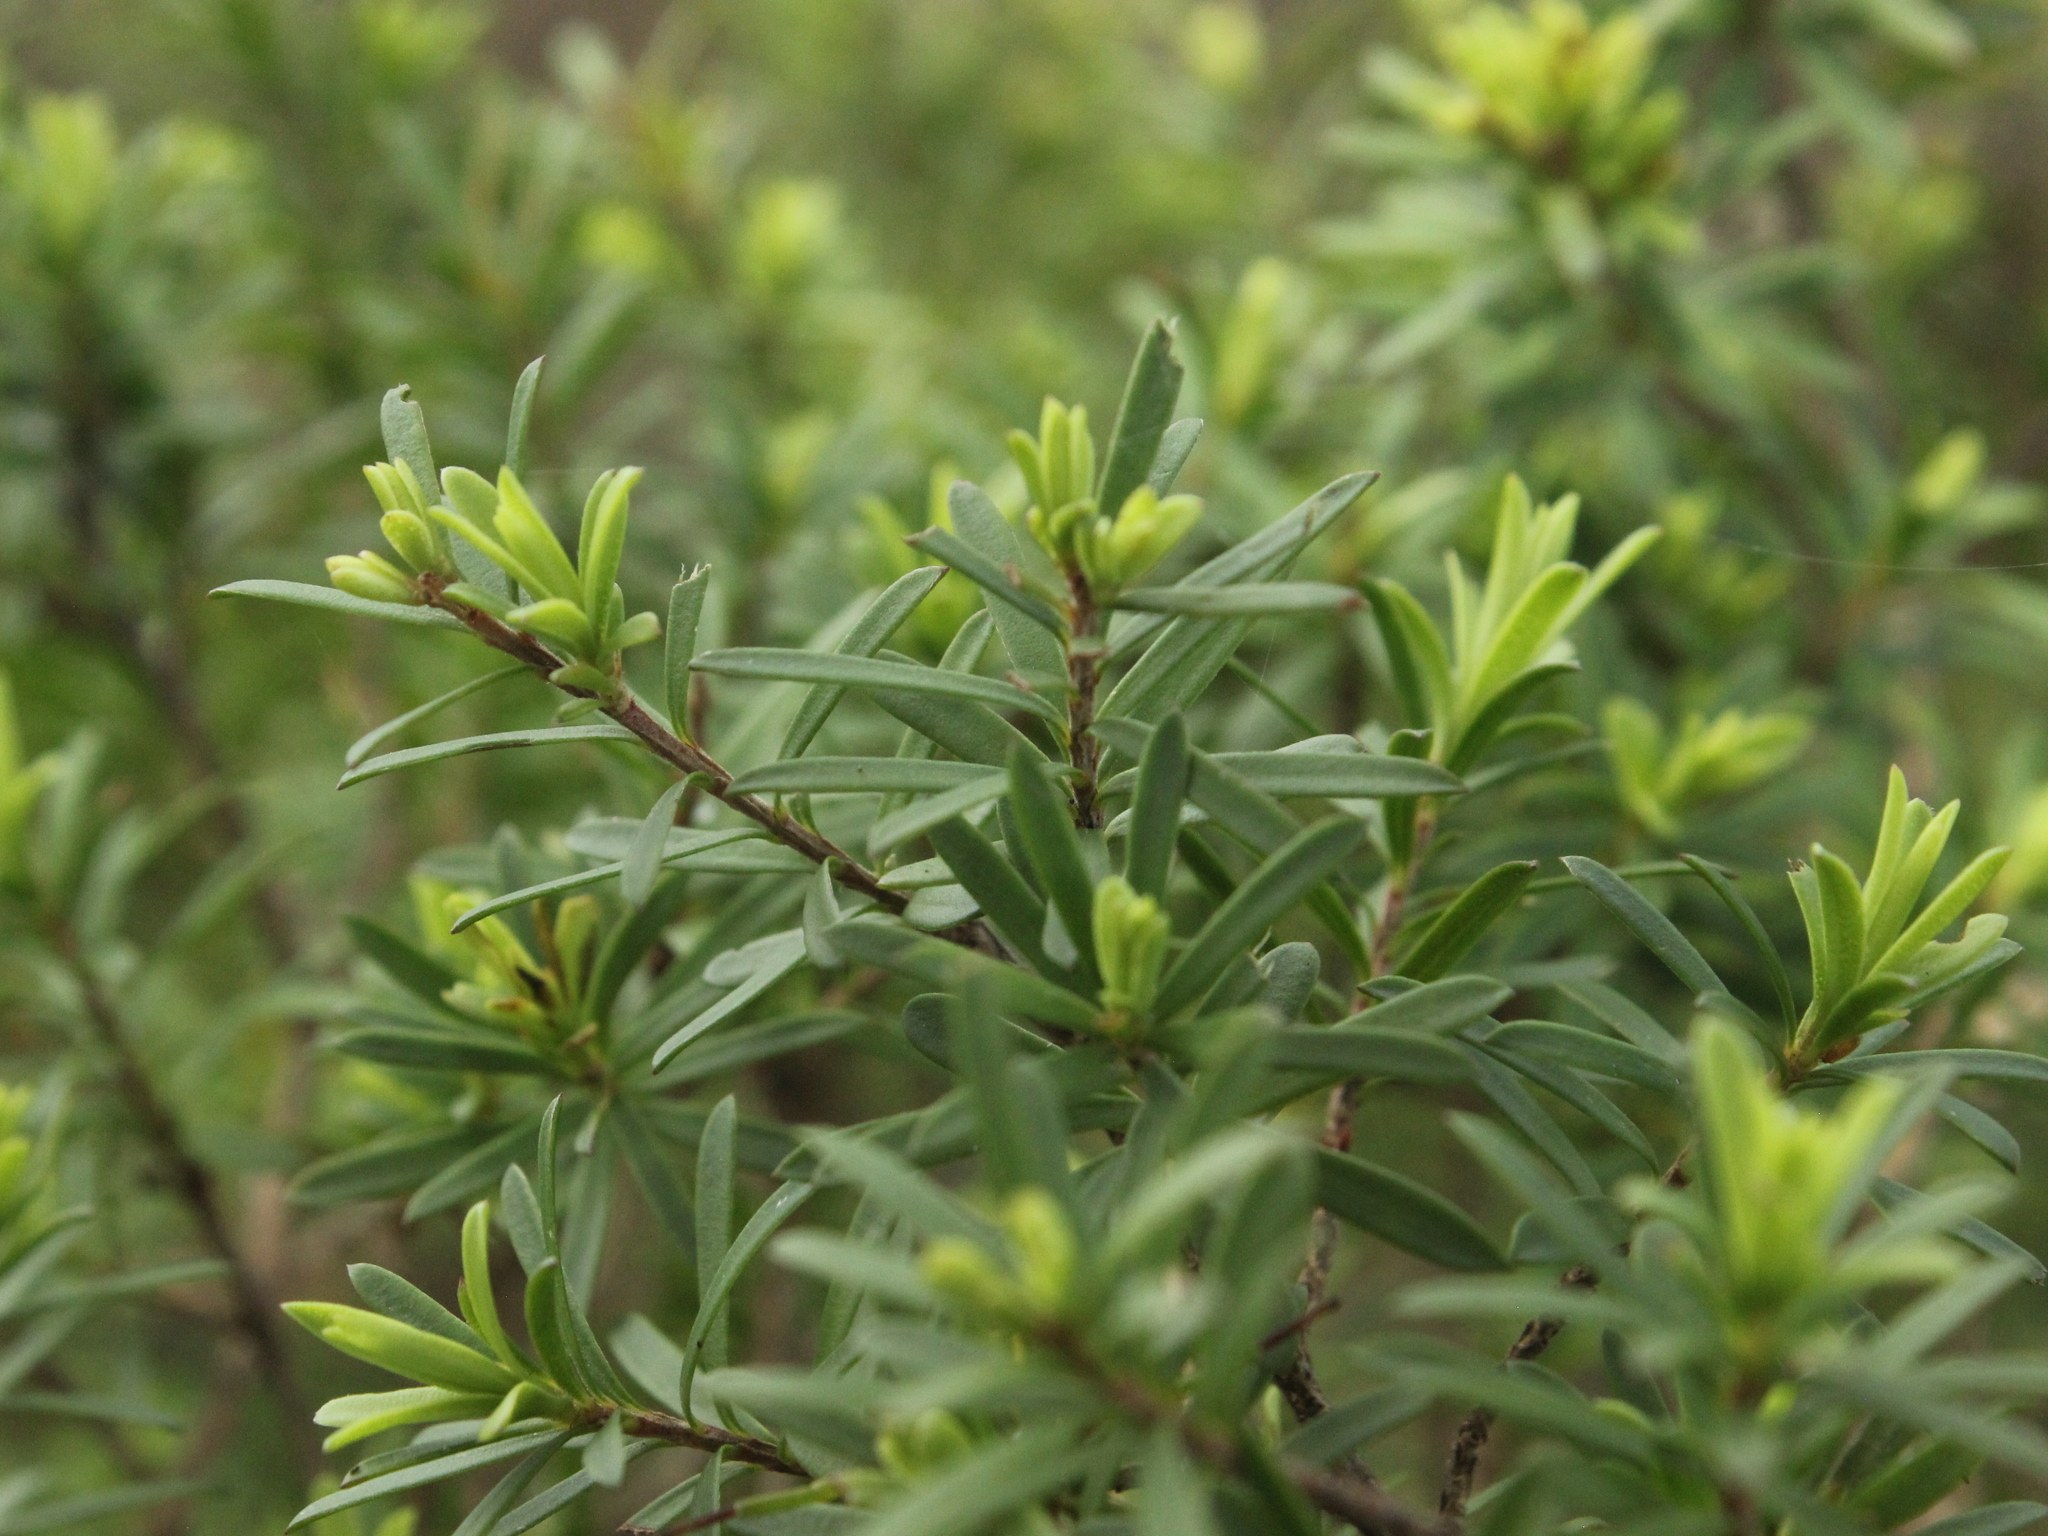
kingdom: Plantae
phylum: Tracheophyta
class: Magnoliopsida
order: Myrtales
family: Myrtaceae
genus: Kunzea
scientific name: Kunzea toelkenii
